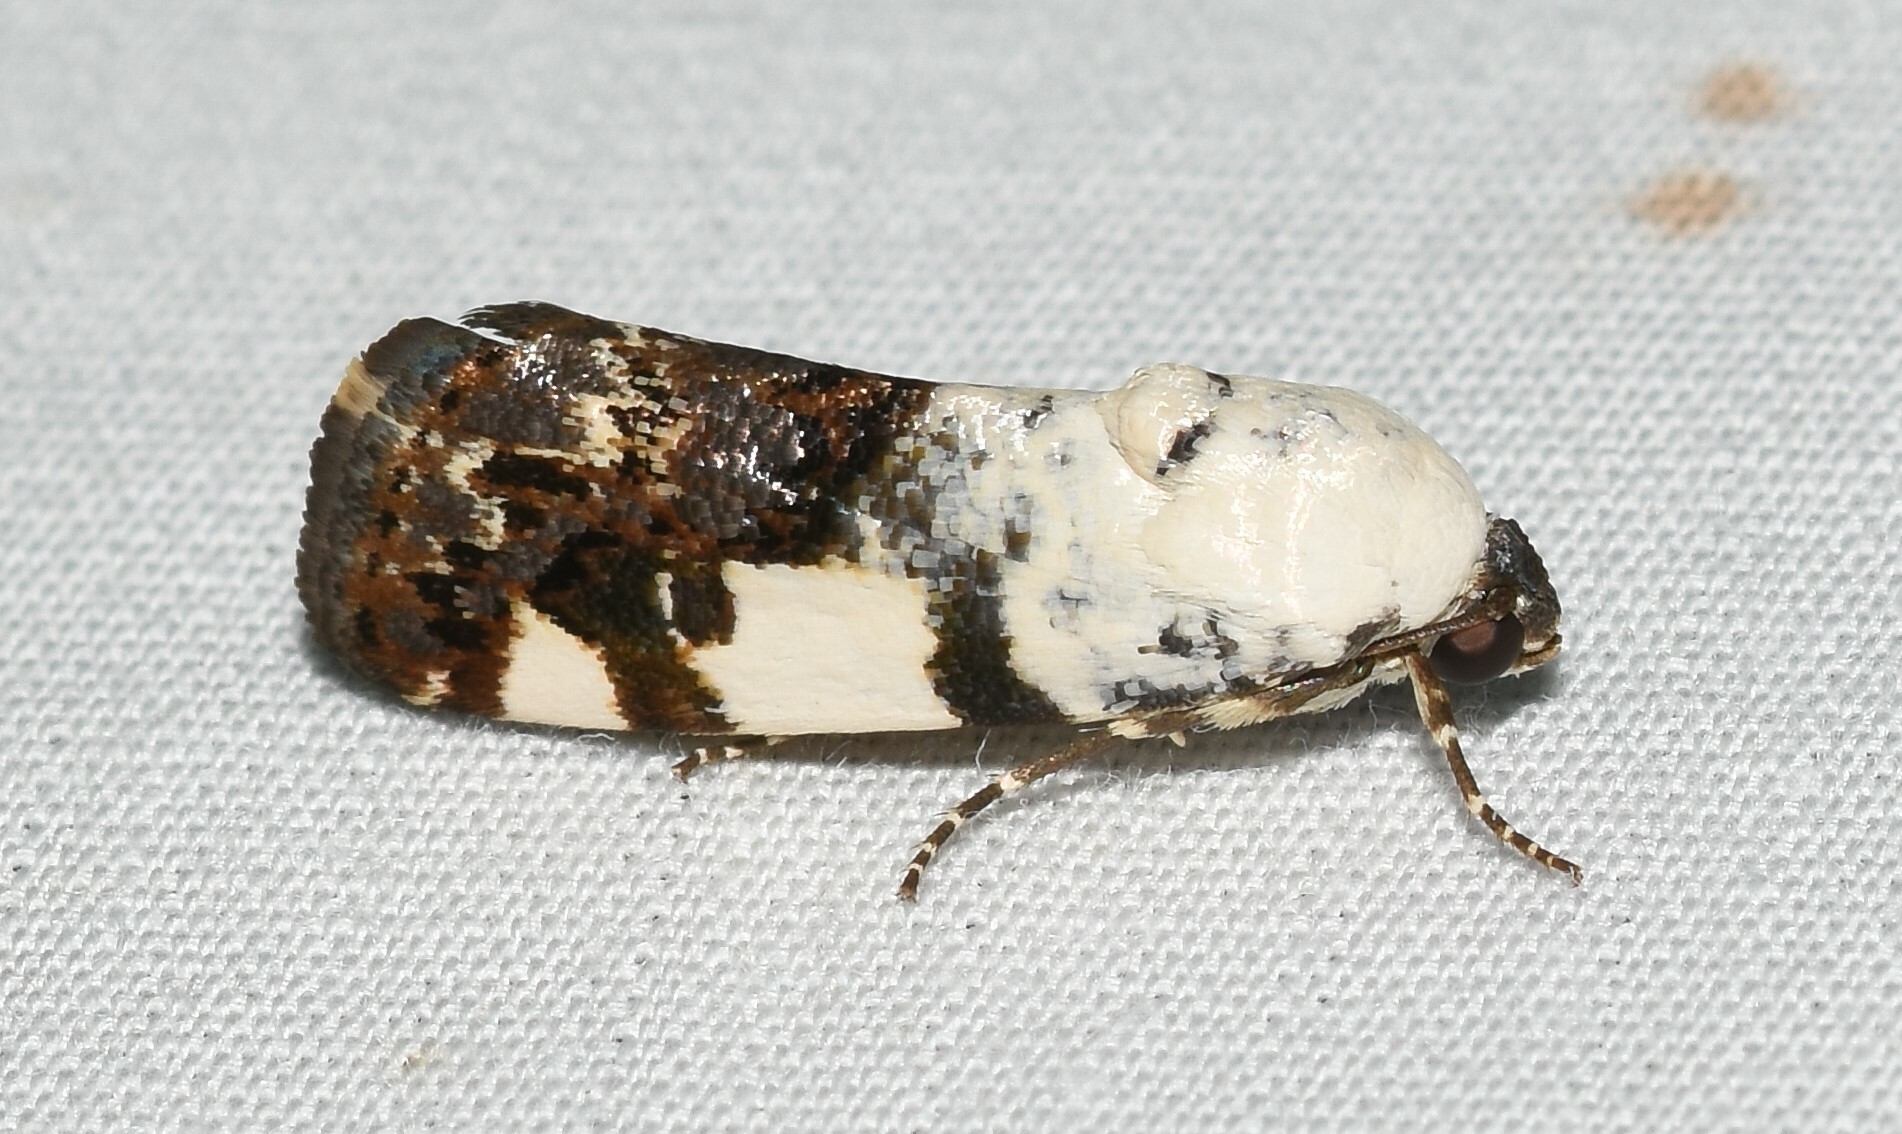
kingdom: Animalia
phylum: Arthropoda
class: Insecta
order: Lepidoptera
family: Noctuidae
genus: Acontia
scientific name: Acontia aprica
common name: Nun
